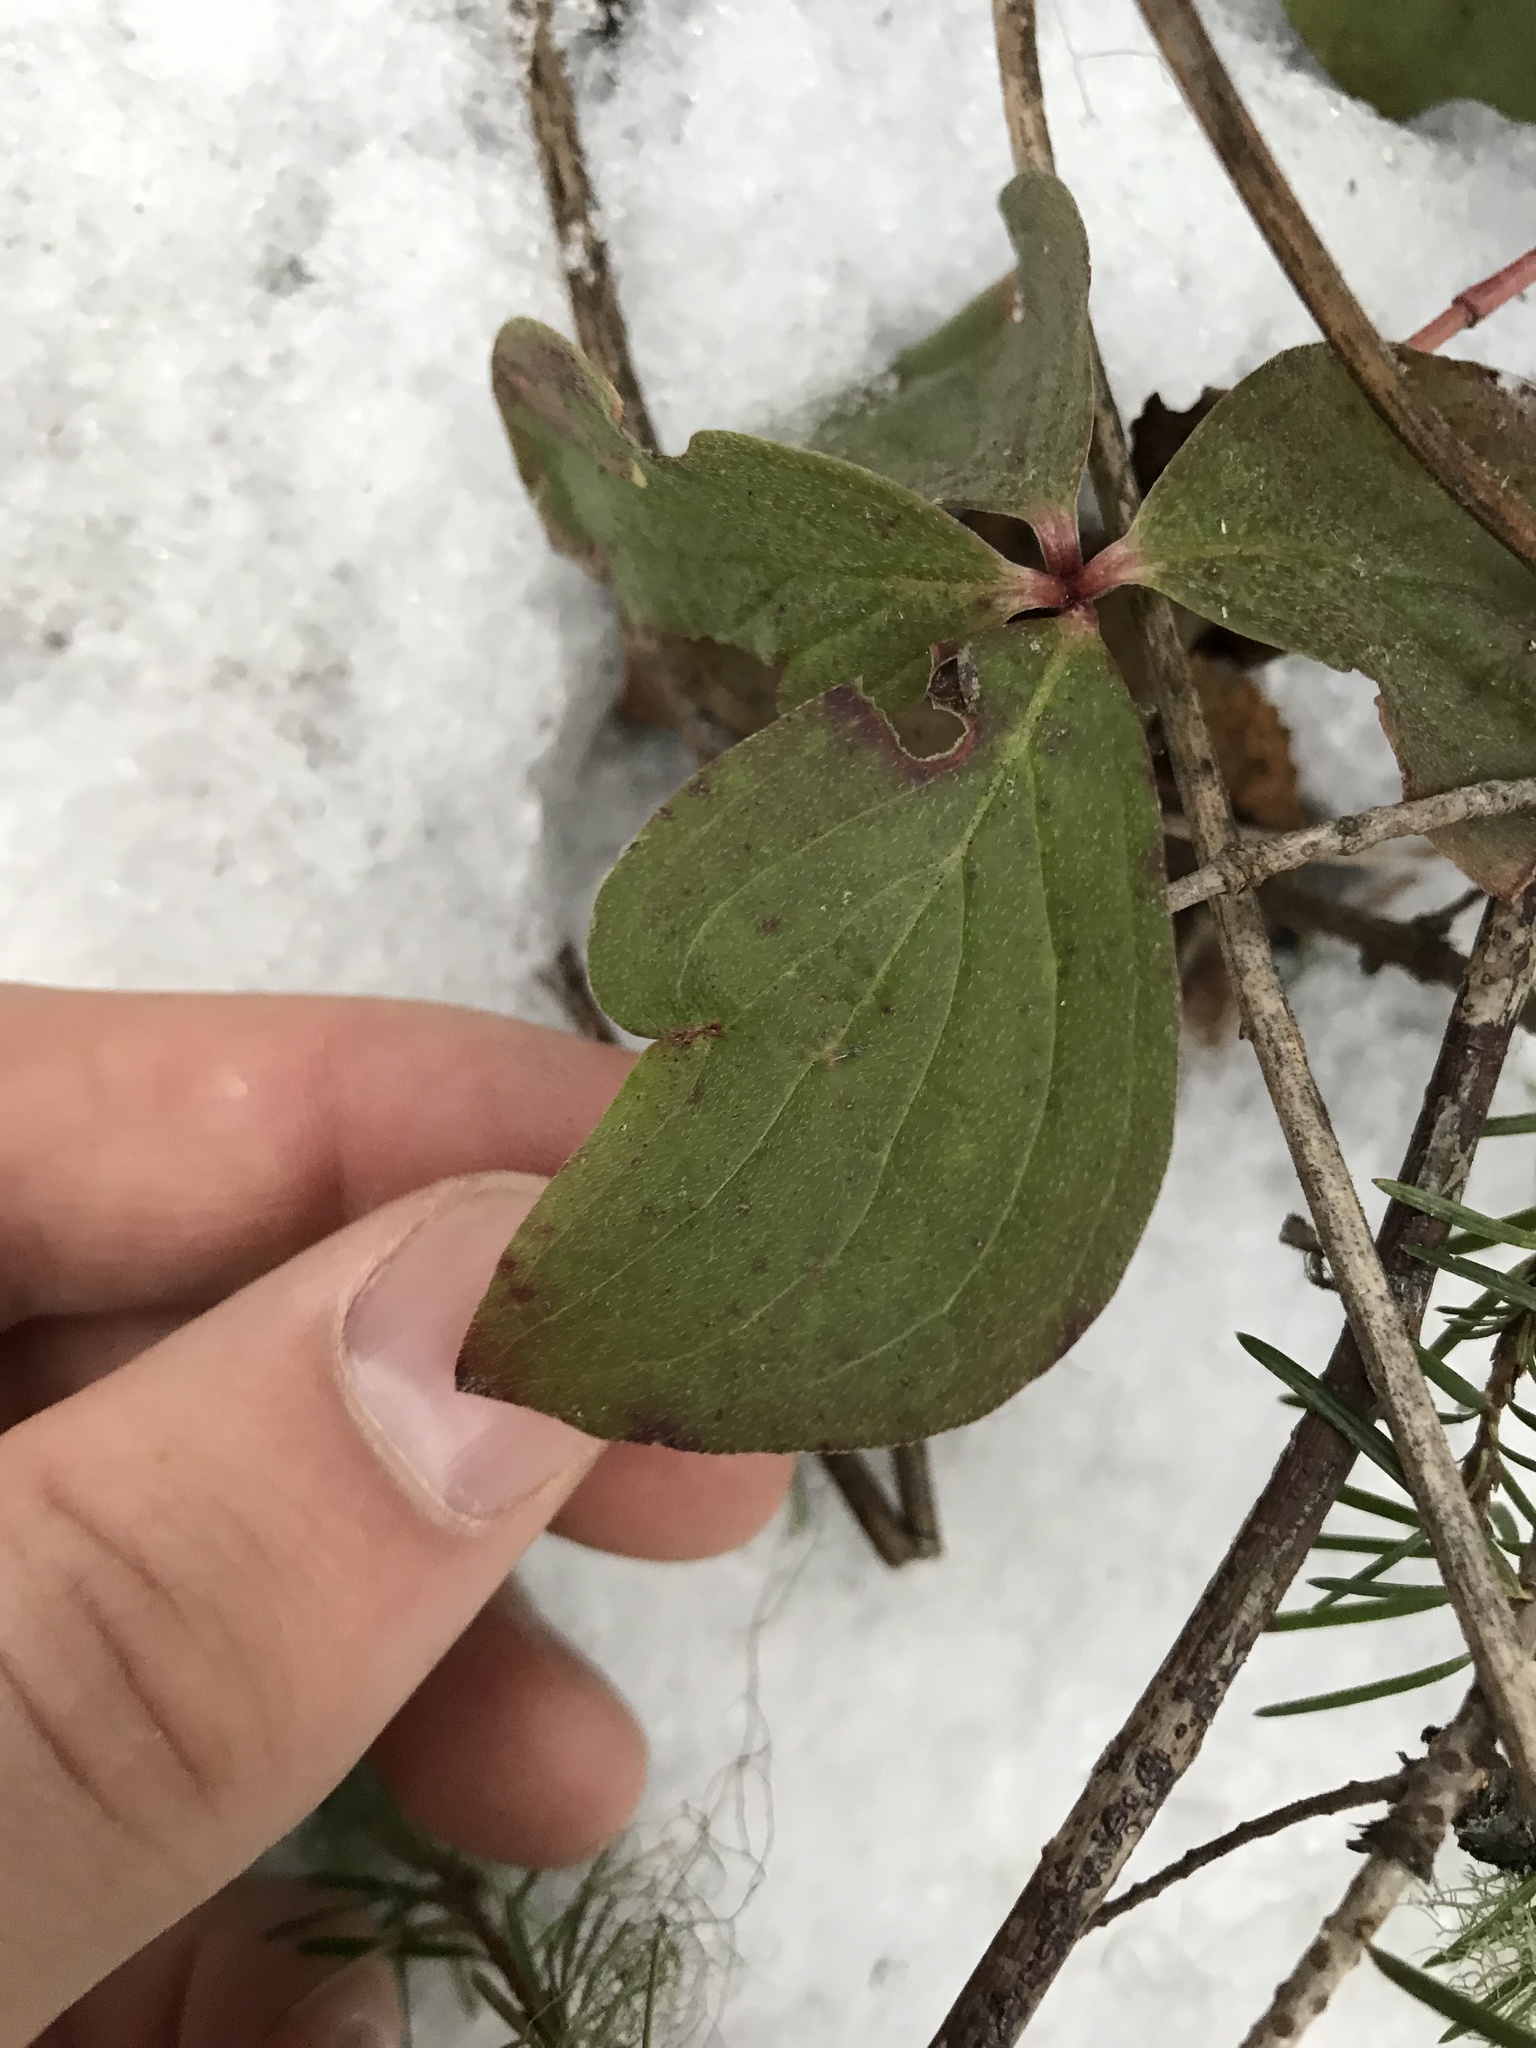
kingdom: Plantae
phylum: Tracheophyta
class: Magnoliopsida
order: Cornales
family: Cornaceae
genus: Cornus
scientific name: Cornus canadensis
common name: Creeping dogwood
